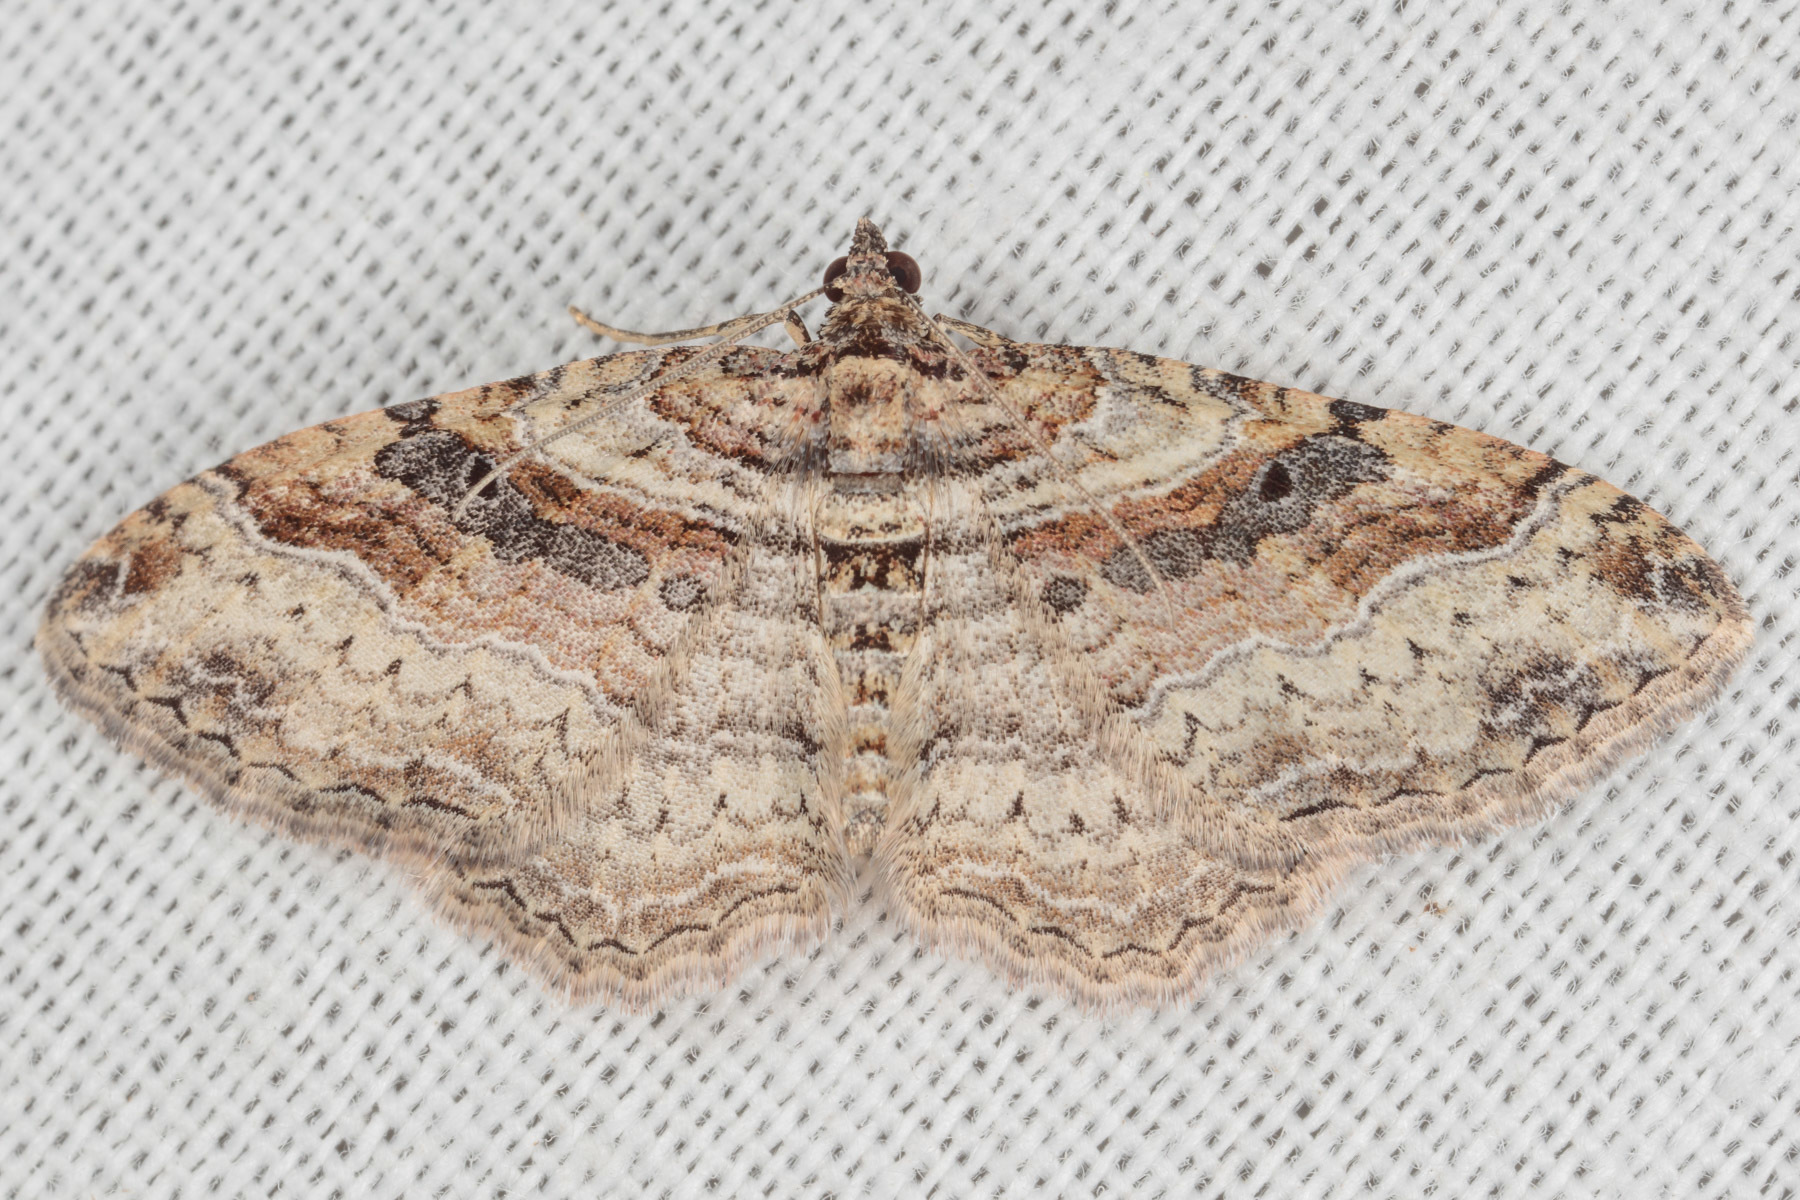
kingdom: Animalia
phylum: Arthropoda
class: Insecta
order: Lepidoptera
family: Geometridae
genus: Costaconvexa
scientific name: Costaconvexa centrostrigaria
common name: Bent-line carpet
